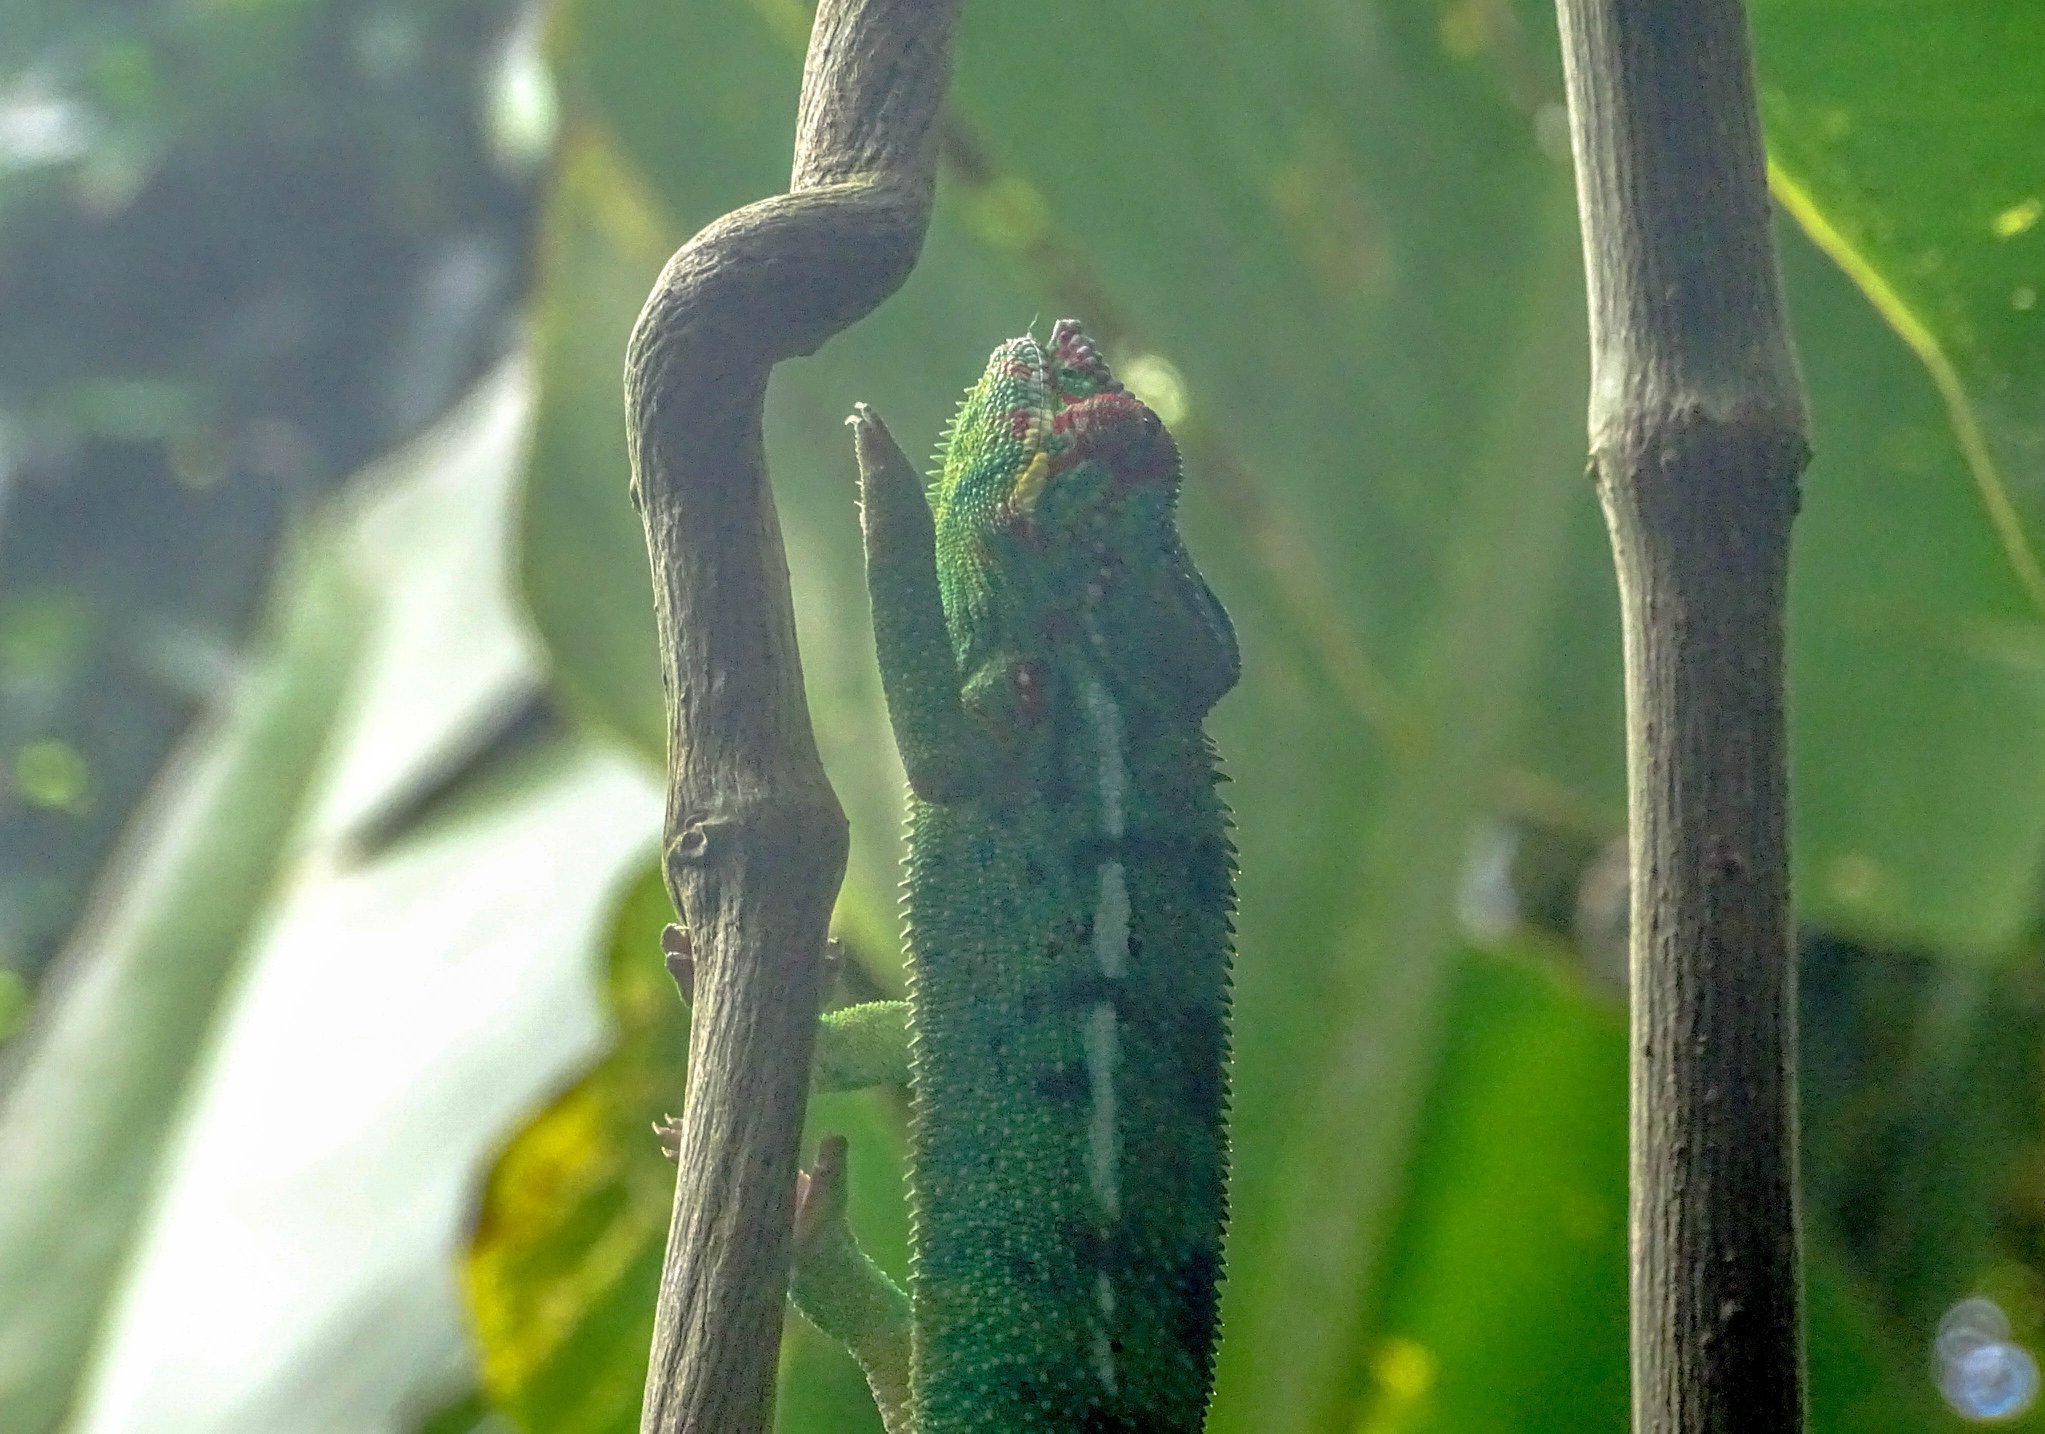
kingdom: Animalia
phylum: Chordata
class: Squamata
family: Chamaeleonidae
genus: Furcifer
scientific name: Furcifer pardalis
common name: Panther chameleon
